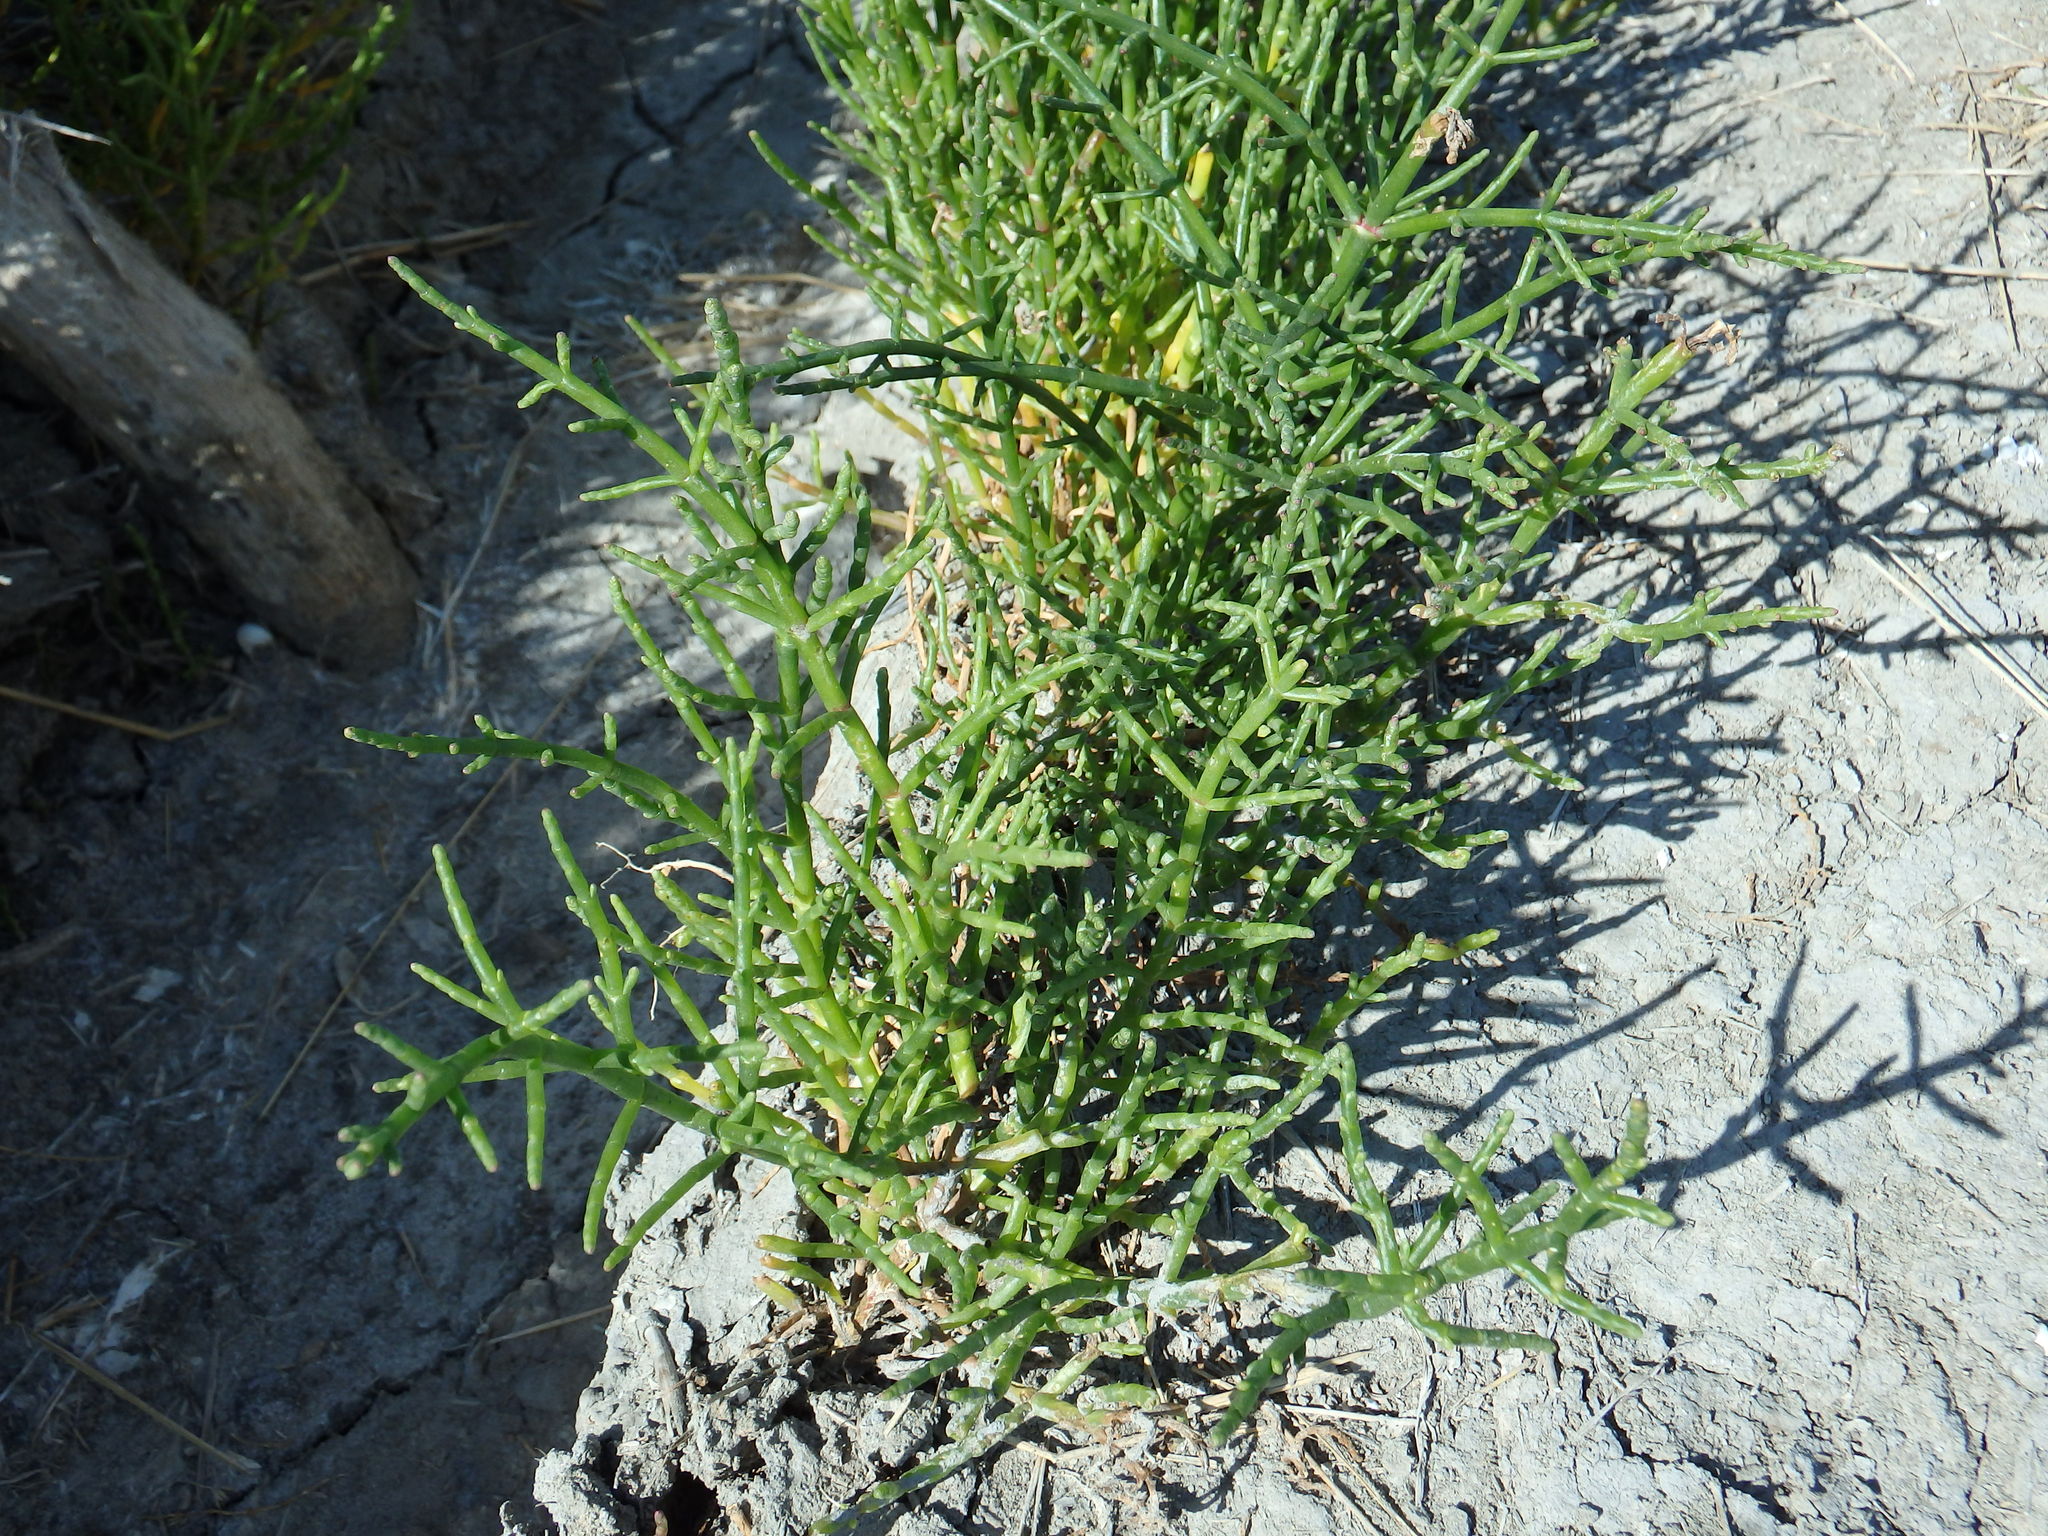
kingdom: Plantae
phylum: Tracheophyta
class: Magnoliopsida
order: Caryophyllales
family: Amaranthaceae
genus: Salicornia
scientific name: Salicornia
